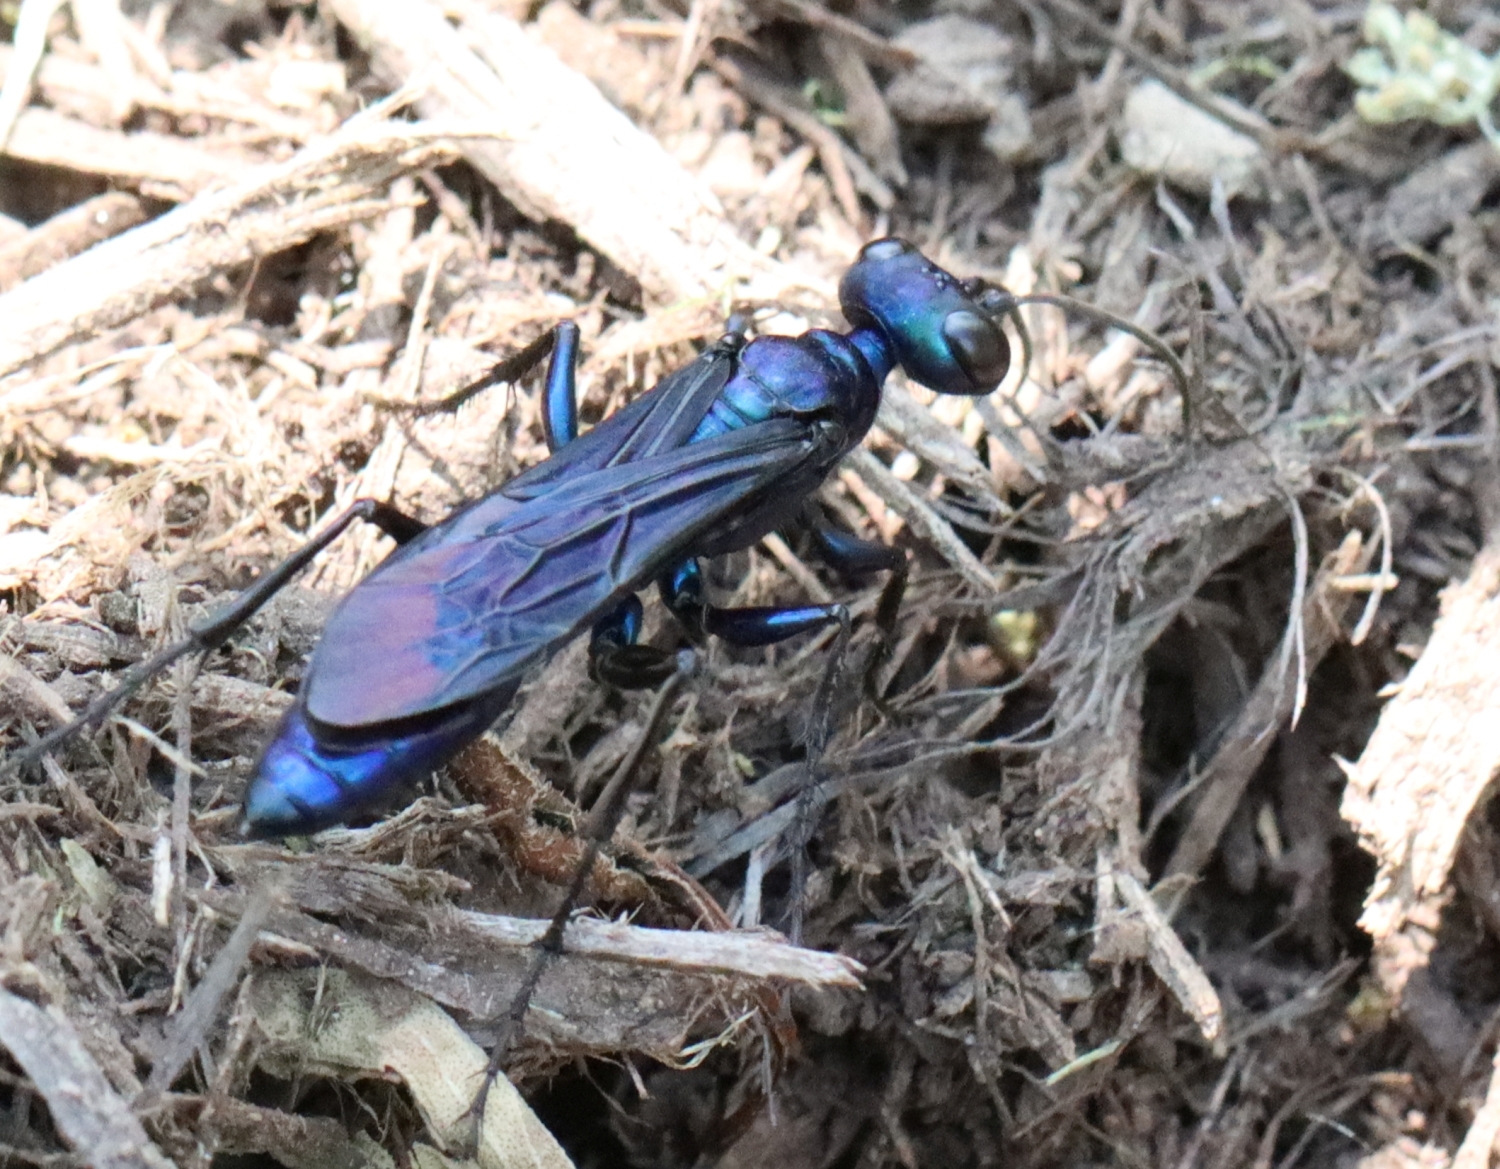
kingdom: Animalia
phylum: Arthropoda
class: Insecta
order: Hymenoptera
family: Sphecidae
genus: Chlorion
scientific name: Chlorion aerarium
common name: Steel-blue cricket hunter
